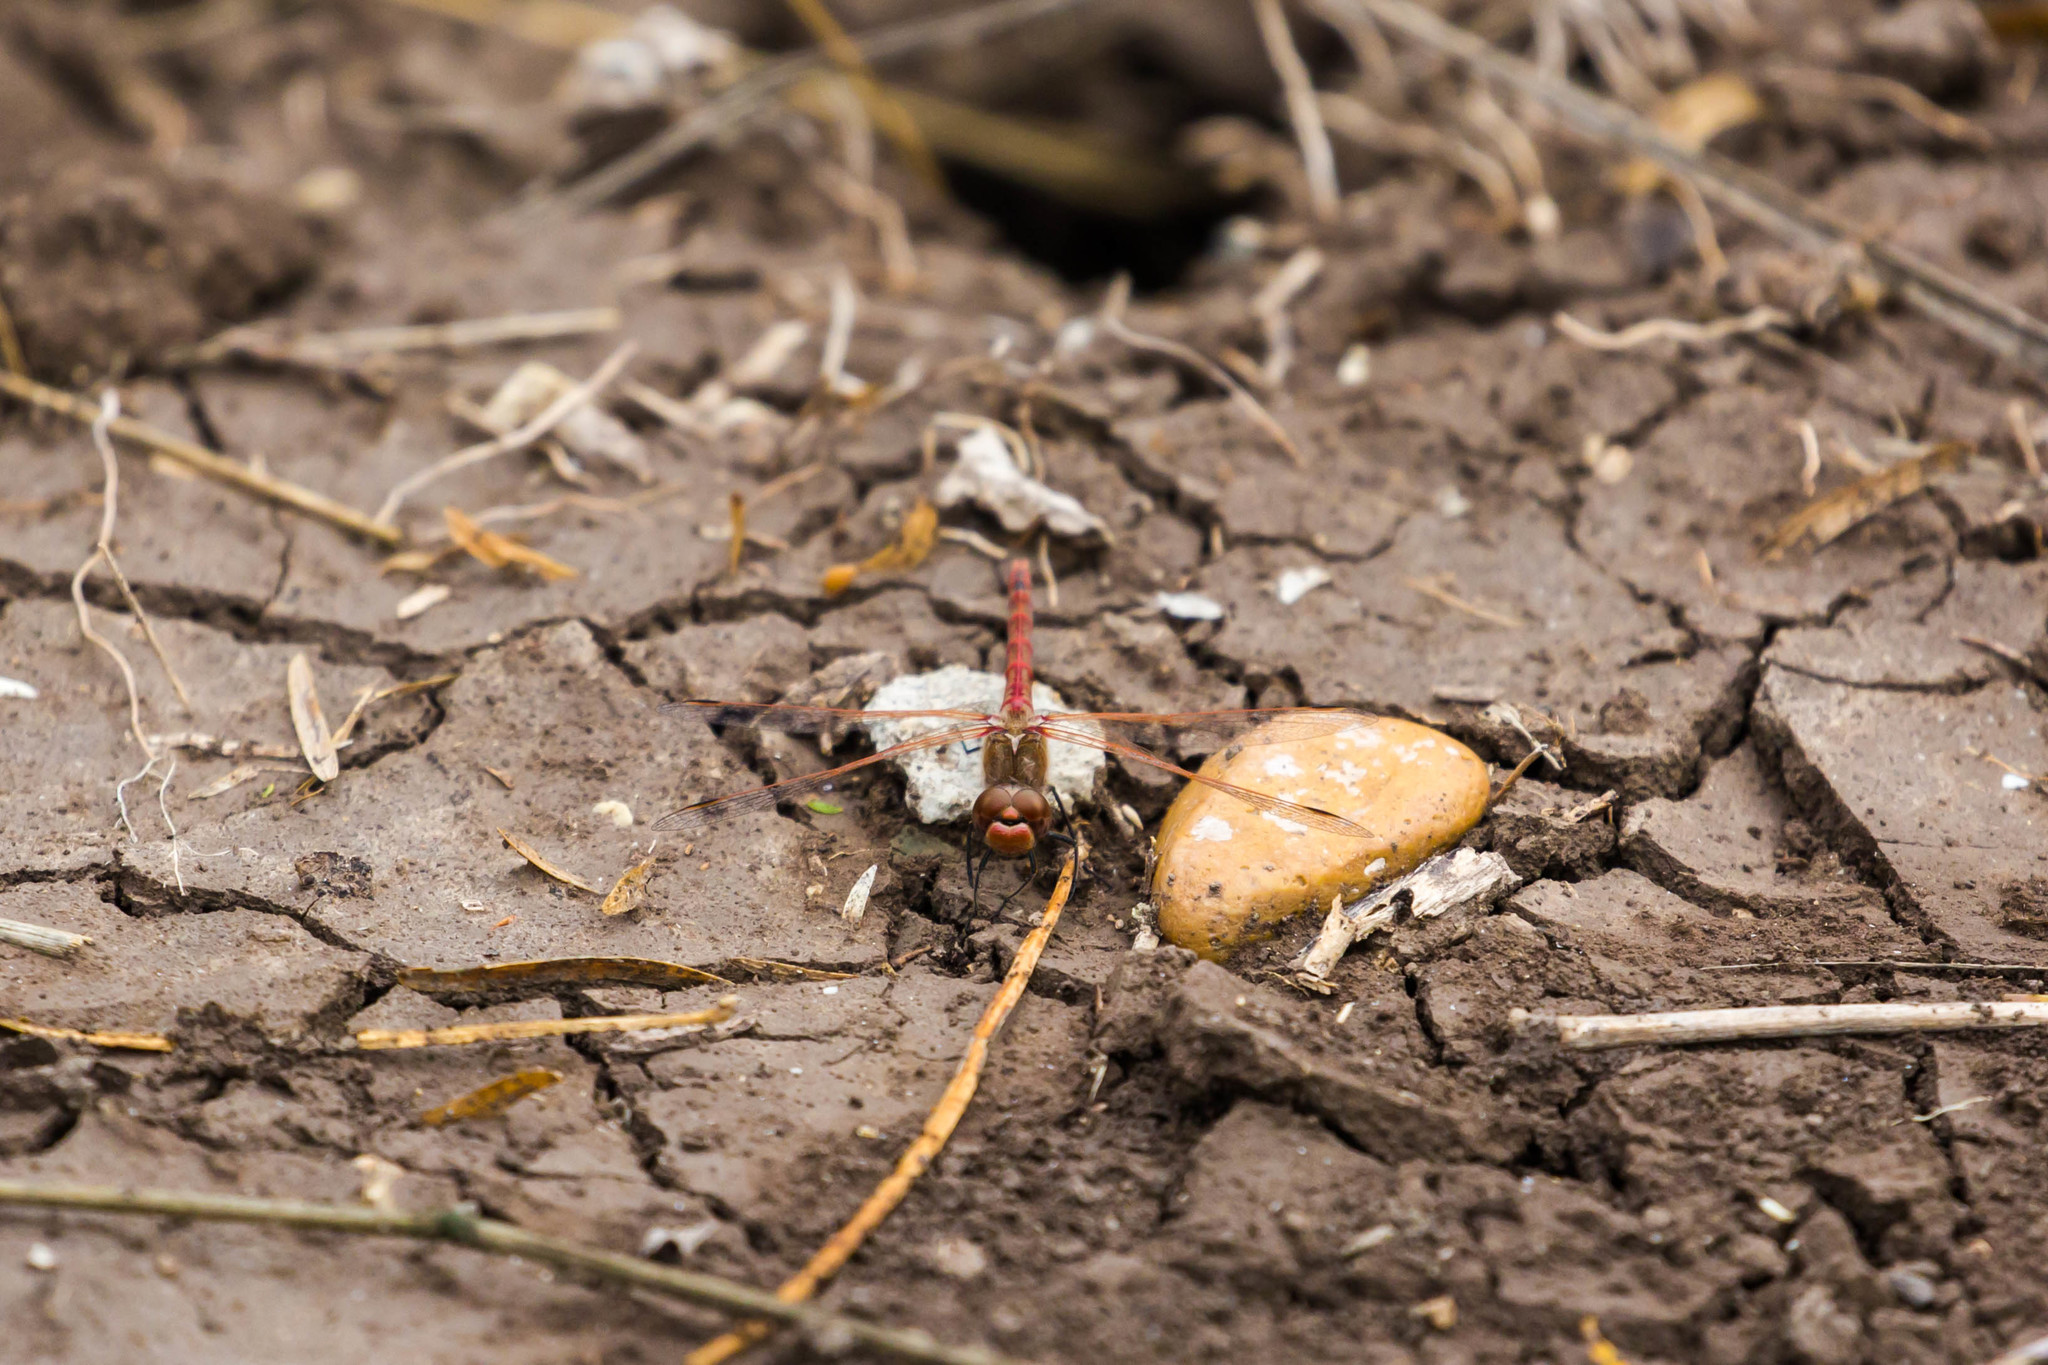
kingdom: Animalia
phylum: Arthropoda
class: Insecta
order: Odonata
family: Libellulidae
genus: Sympetrum
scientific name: Sympetrum corruptum
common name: Variegated meadowhawk
